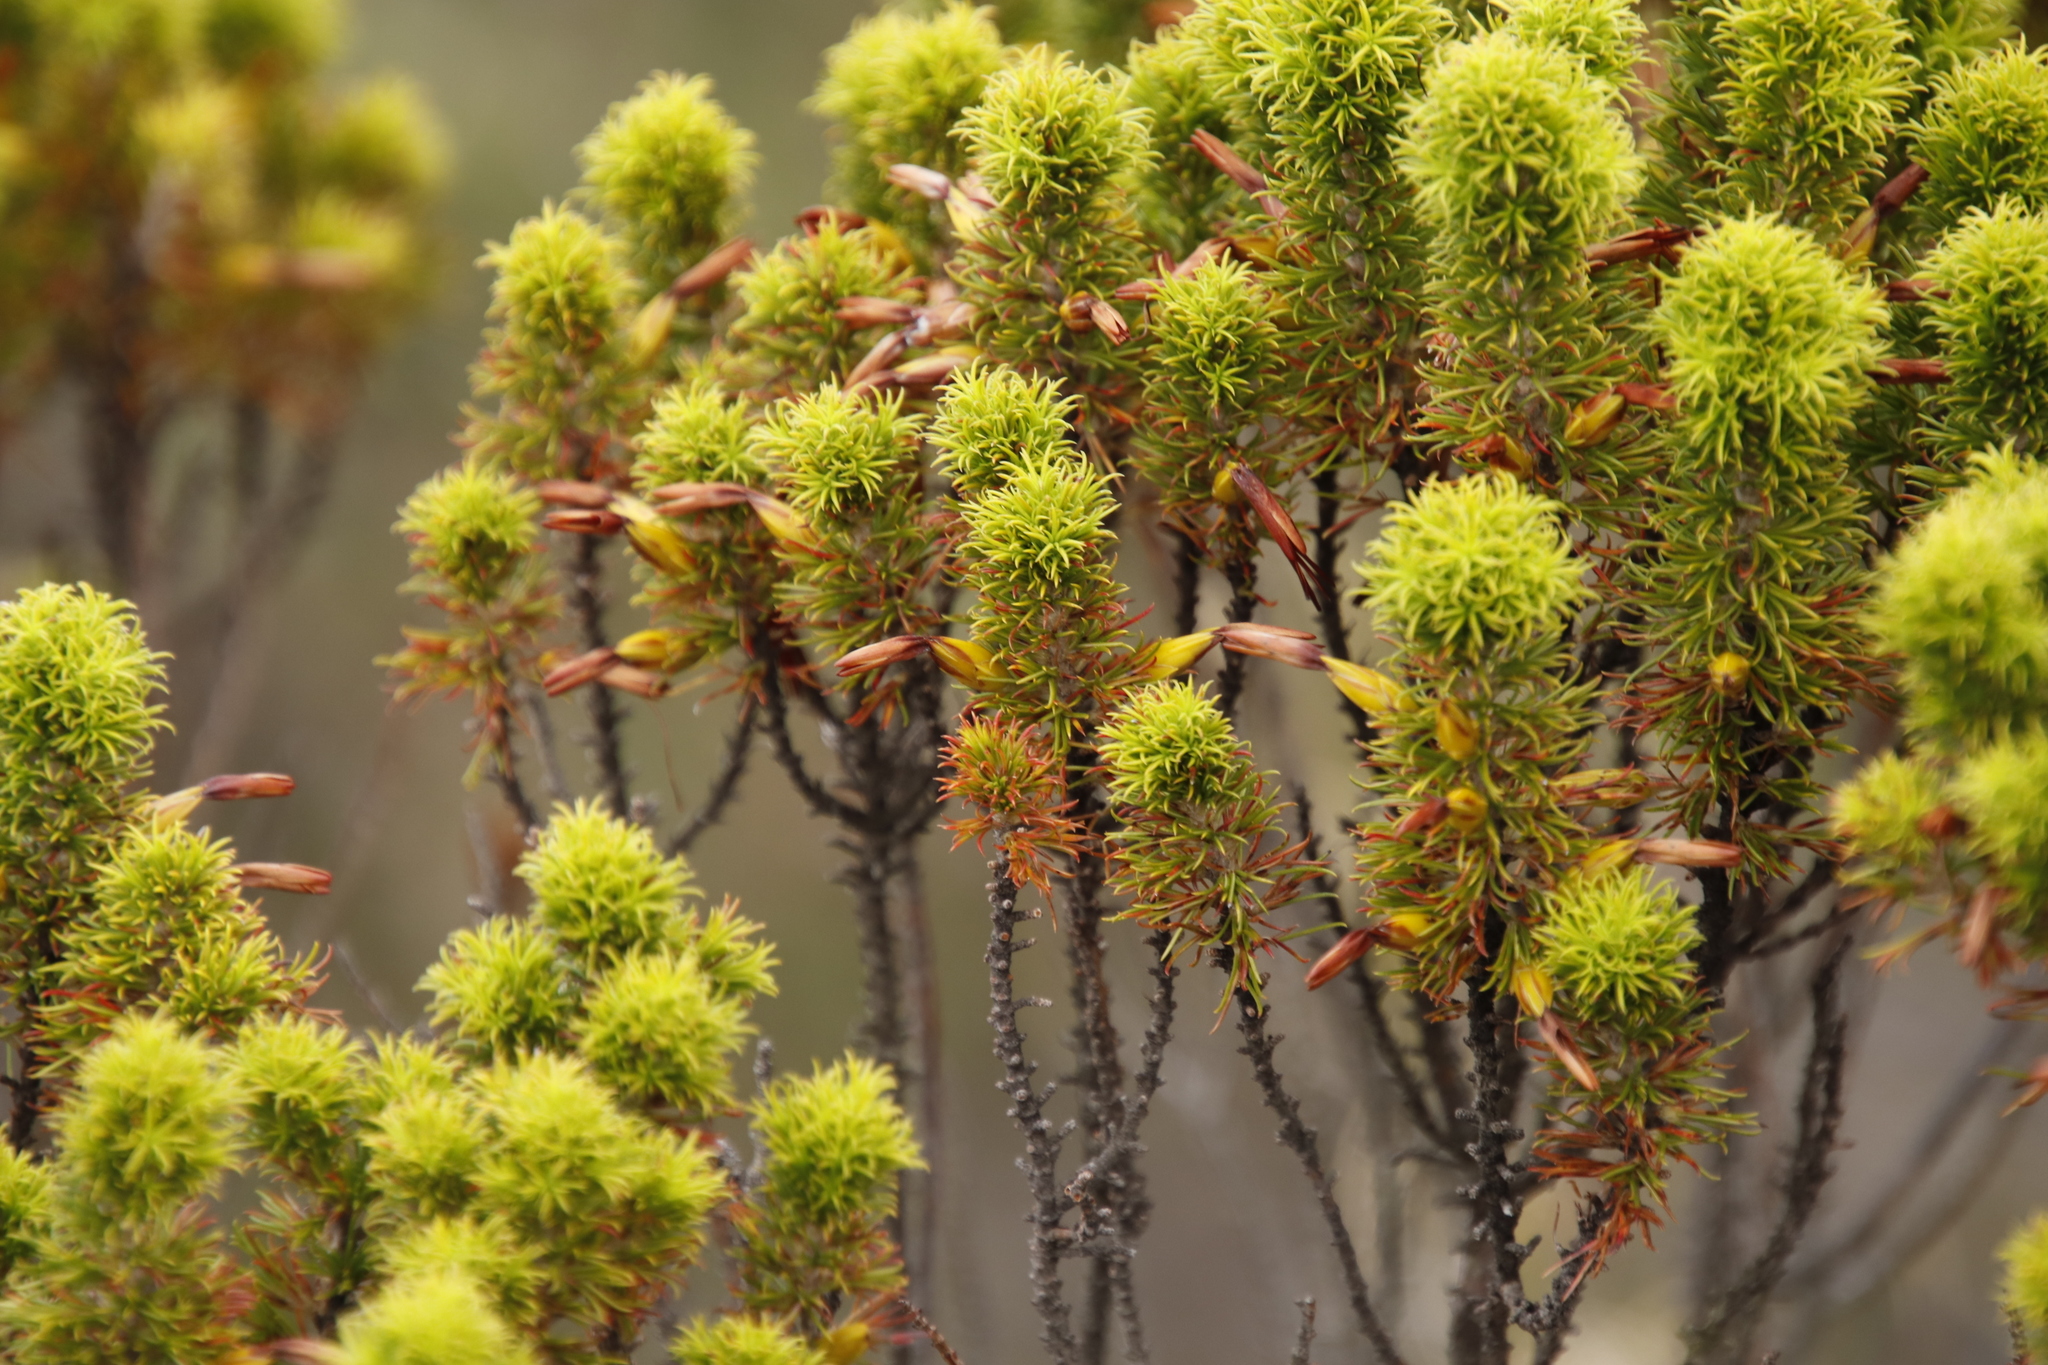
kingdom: Plantae
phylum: Tracheophyta
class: Magnoliopsida
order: Ericales
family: Ericaceae
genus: Erica
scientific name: Erica coccinea
